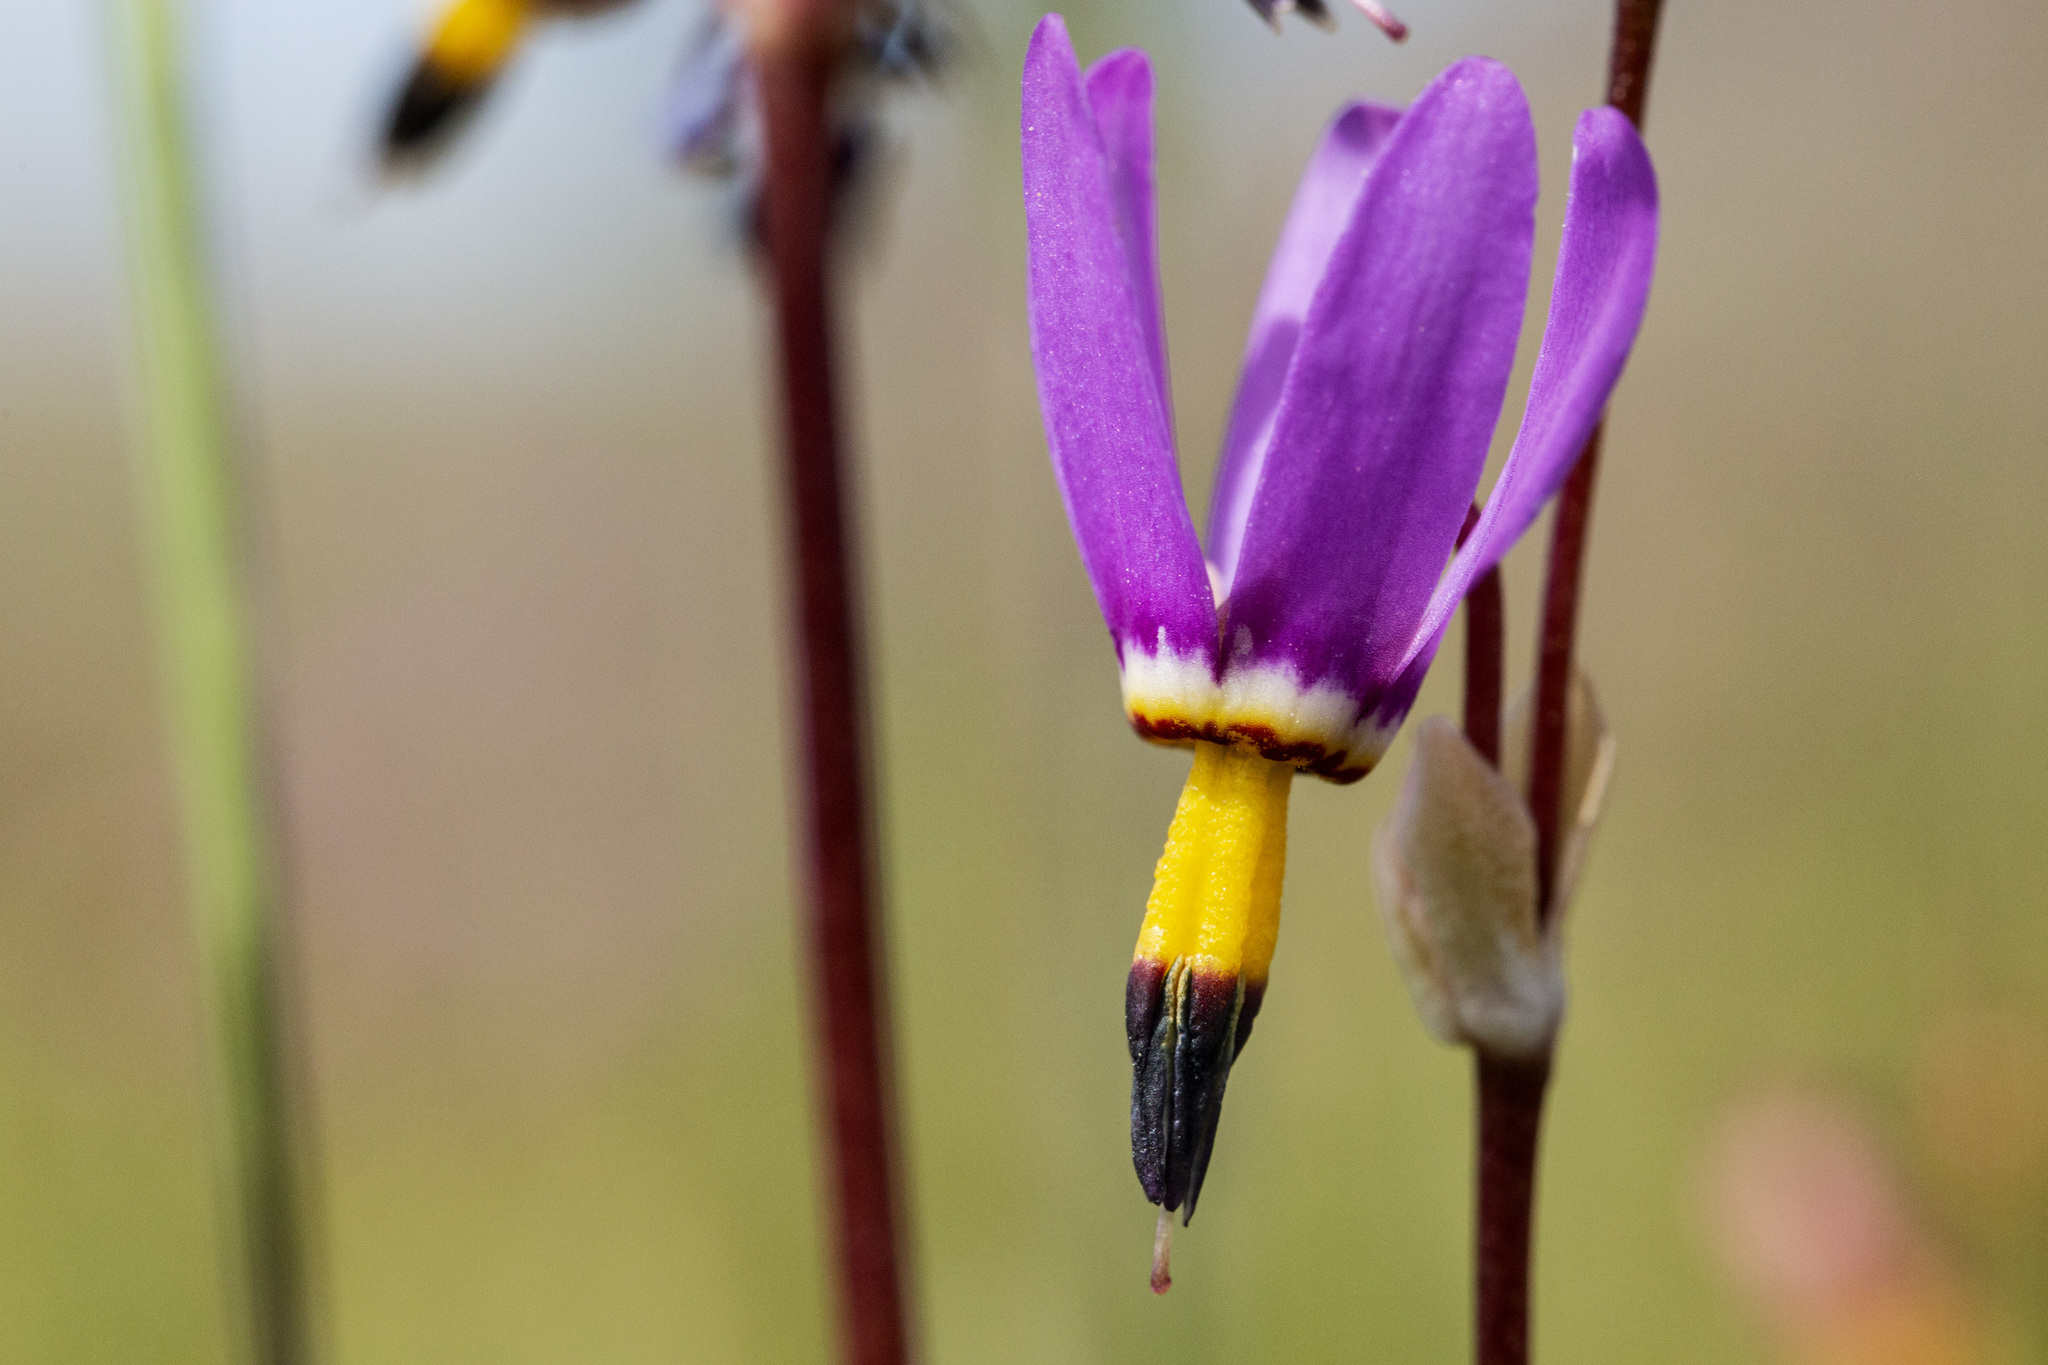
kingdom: Plantae
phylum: Tracheophyta
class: Magnoliopsida
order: Ericales
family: Primulaceae
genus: Dodecatheon
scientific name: Dodecatheon pulchellum
